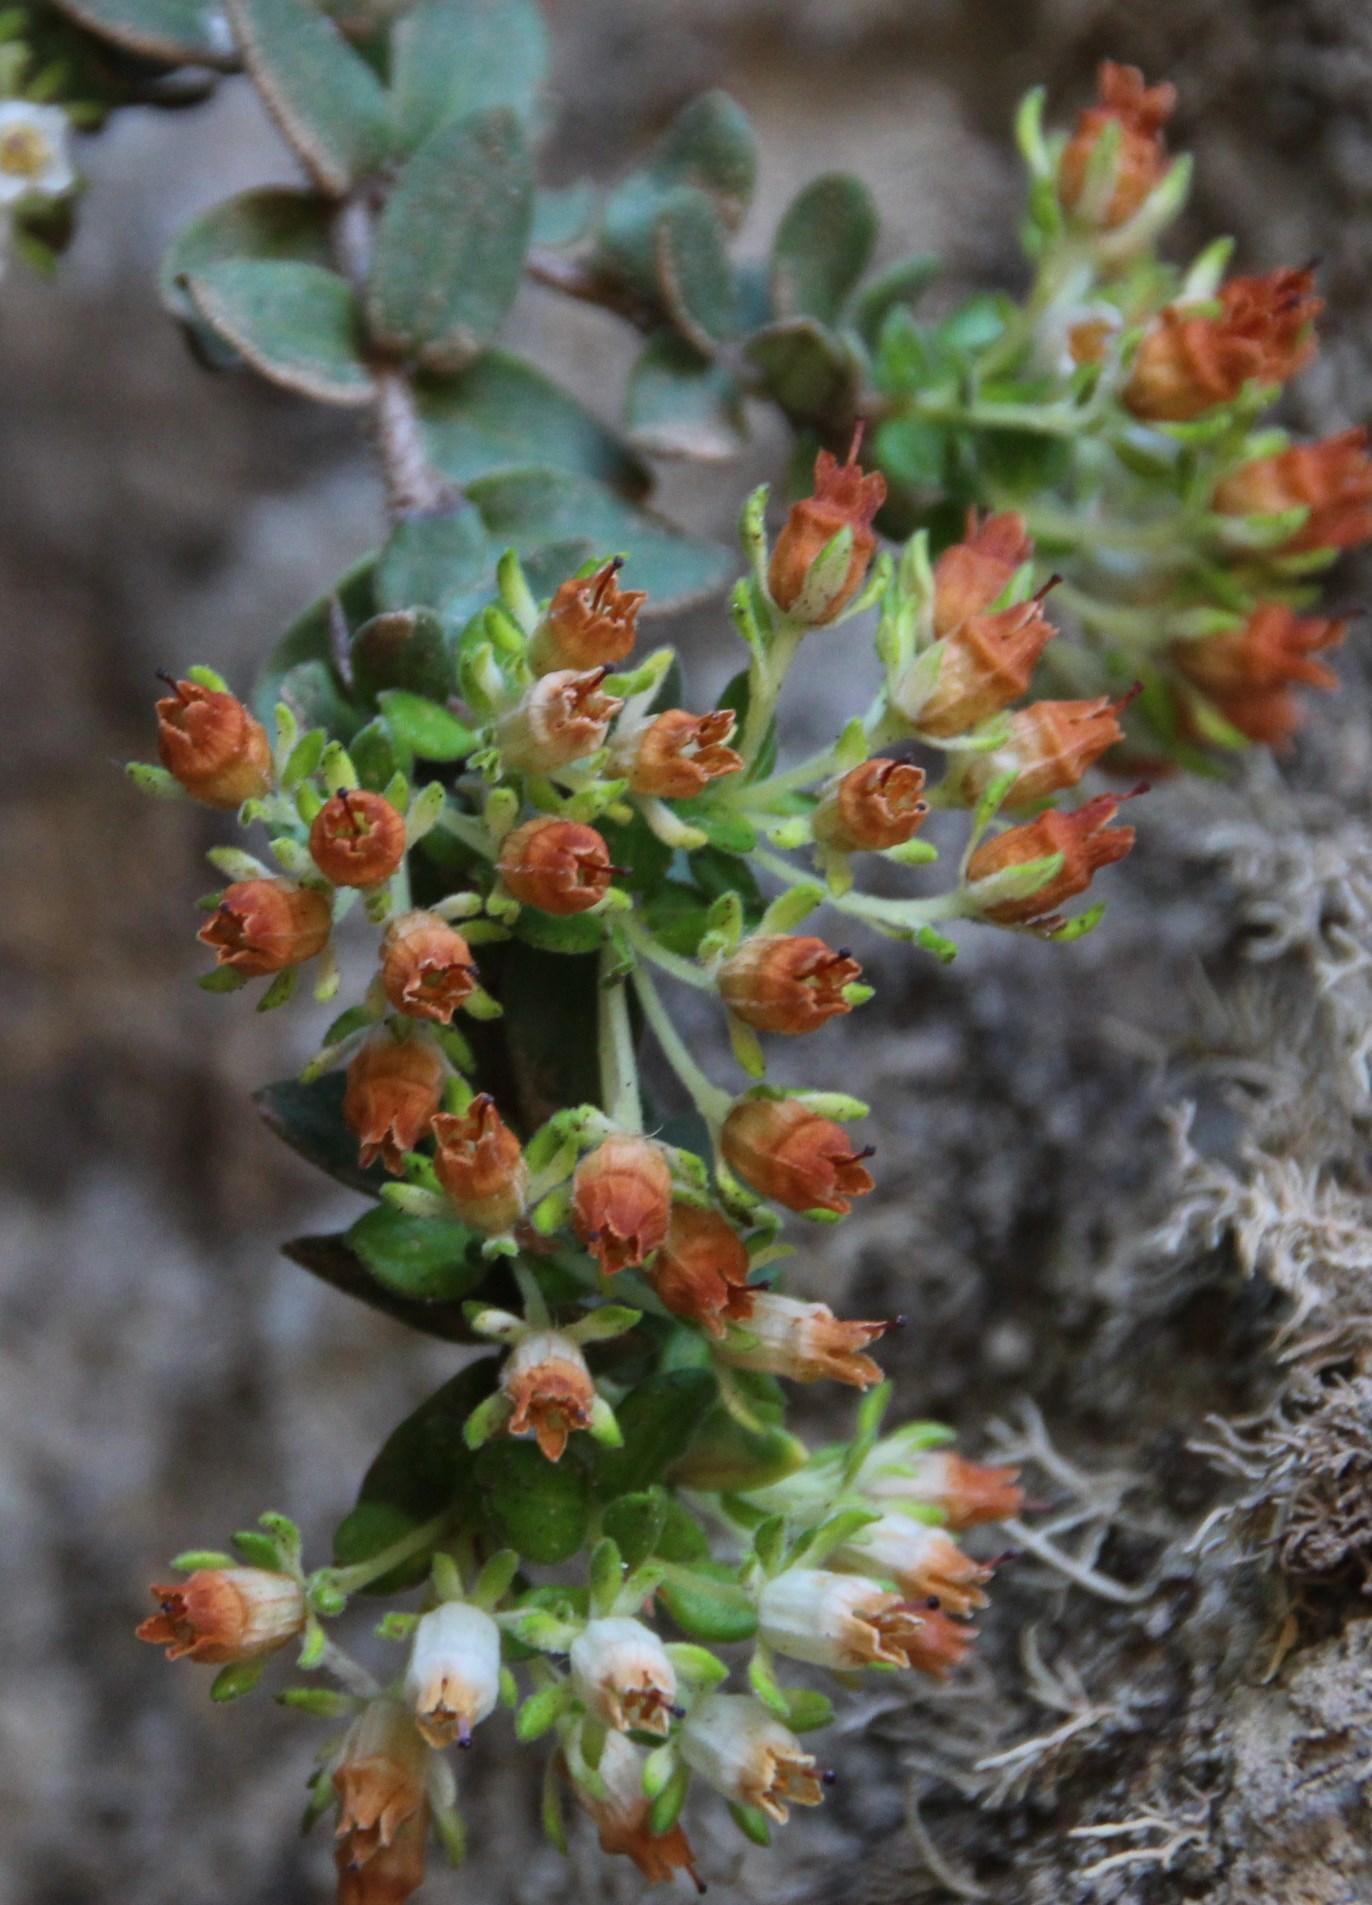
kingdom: Plantae
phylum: Tracheophyta
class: Magnoliopsida
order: Ericales
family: Ericaceae
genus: Erica
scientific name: Erica marifolia
